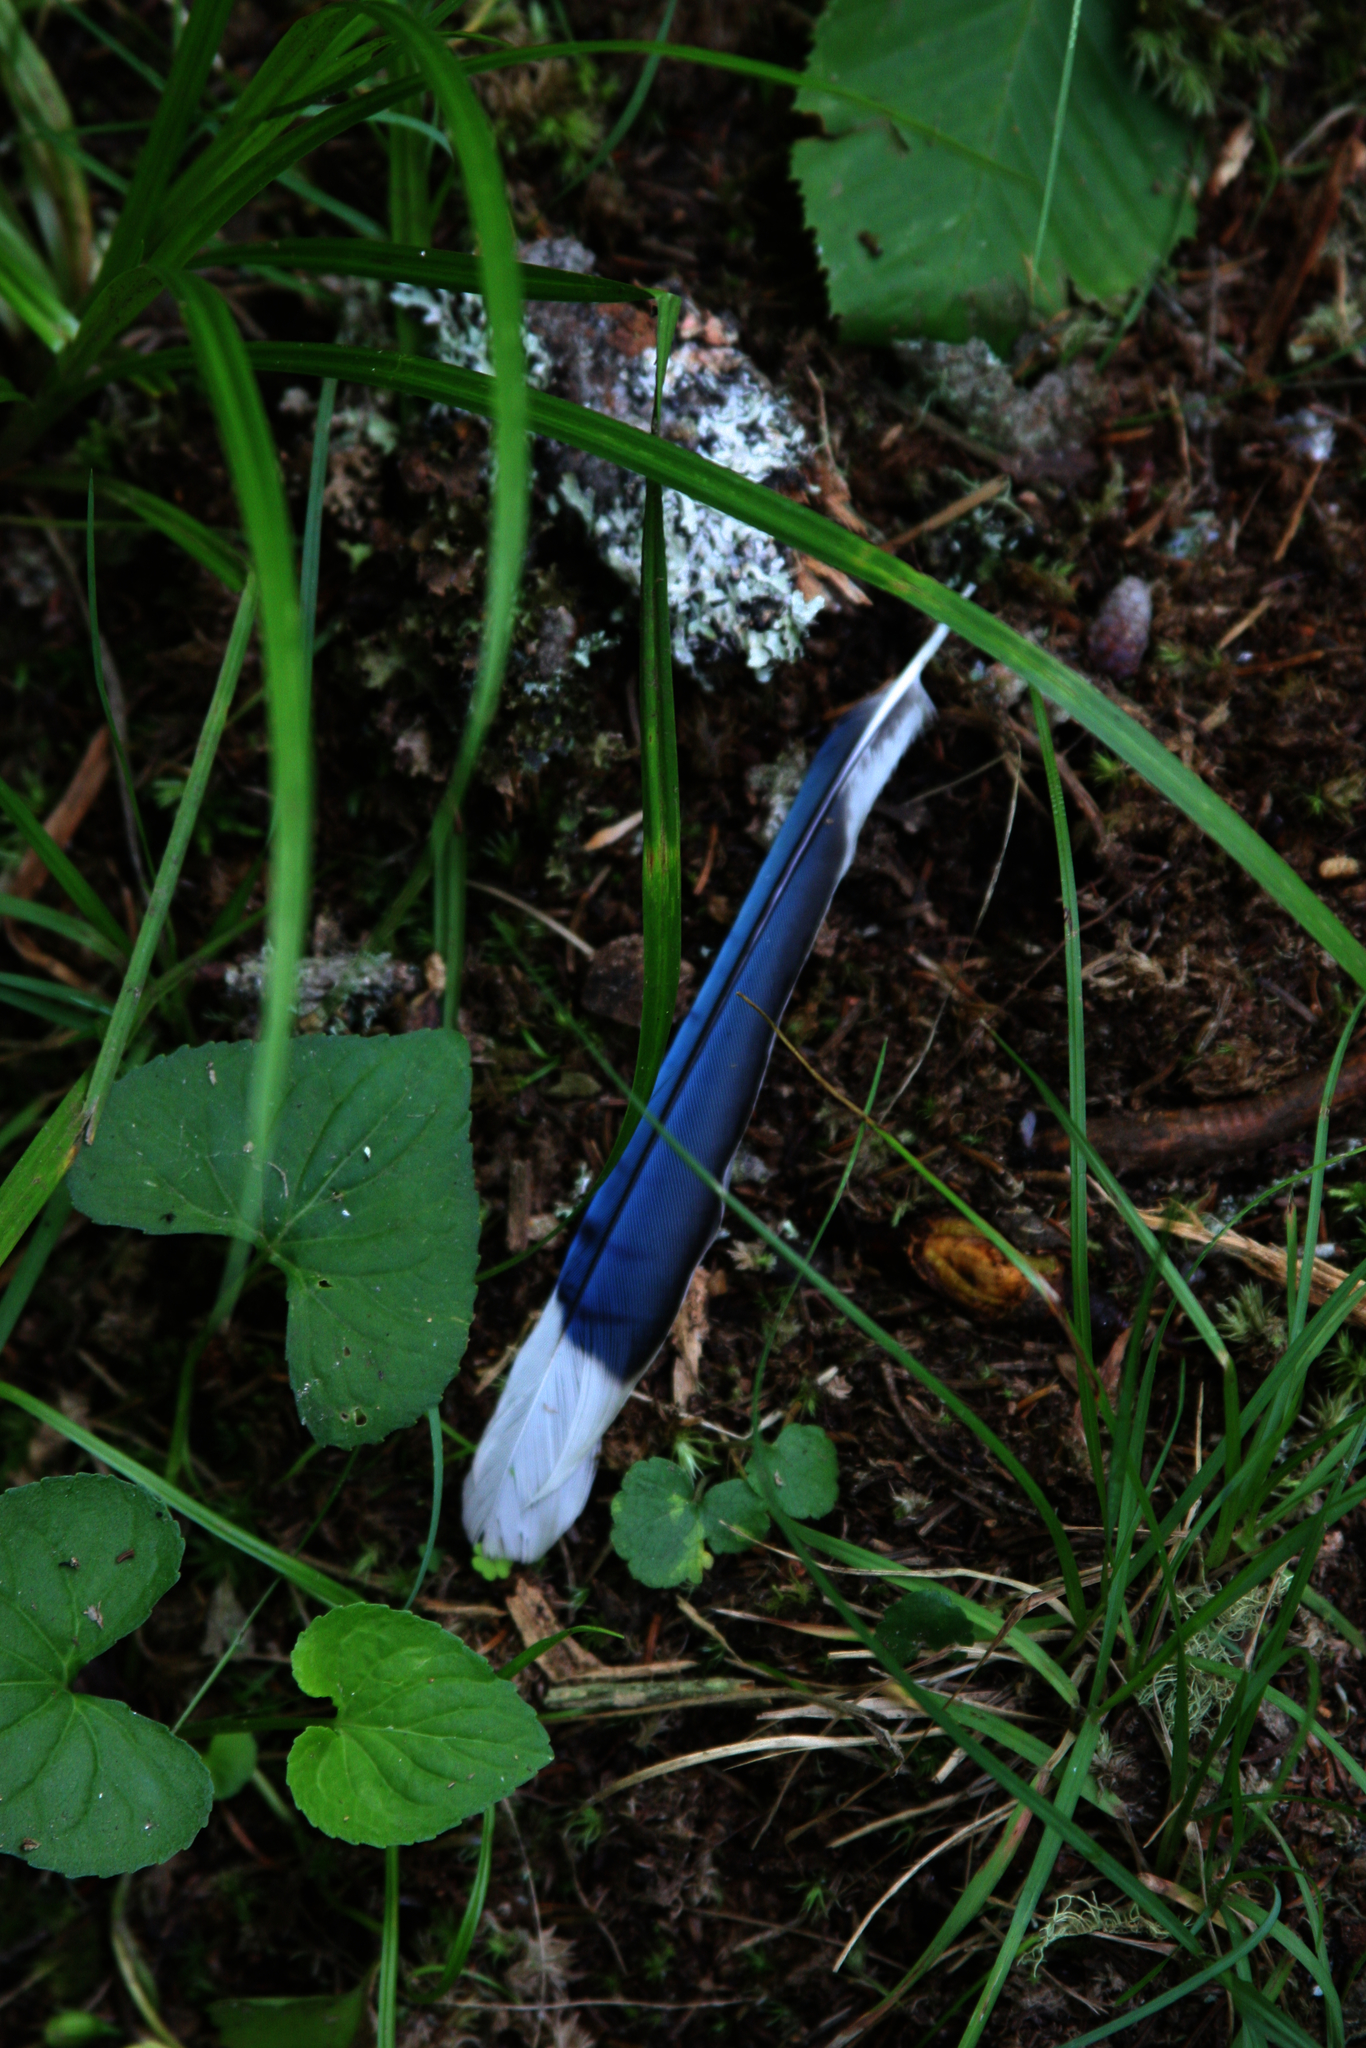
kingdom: Animalia
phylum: Chordata
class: Aves
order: Passeriformes
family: Corvidae
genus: Cyanocitta
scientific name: Cyanocitta cristata
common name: Blue jay
